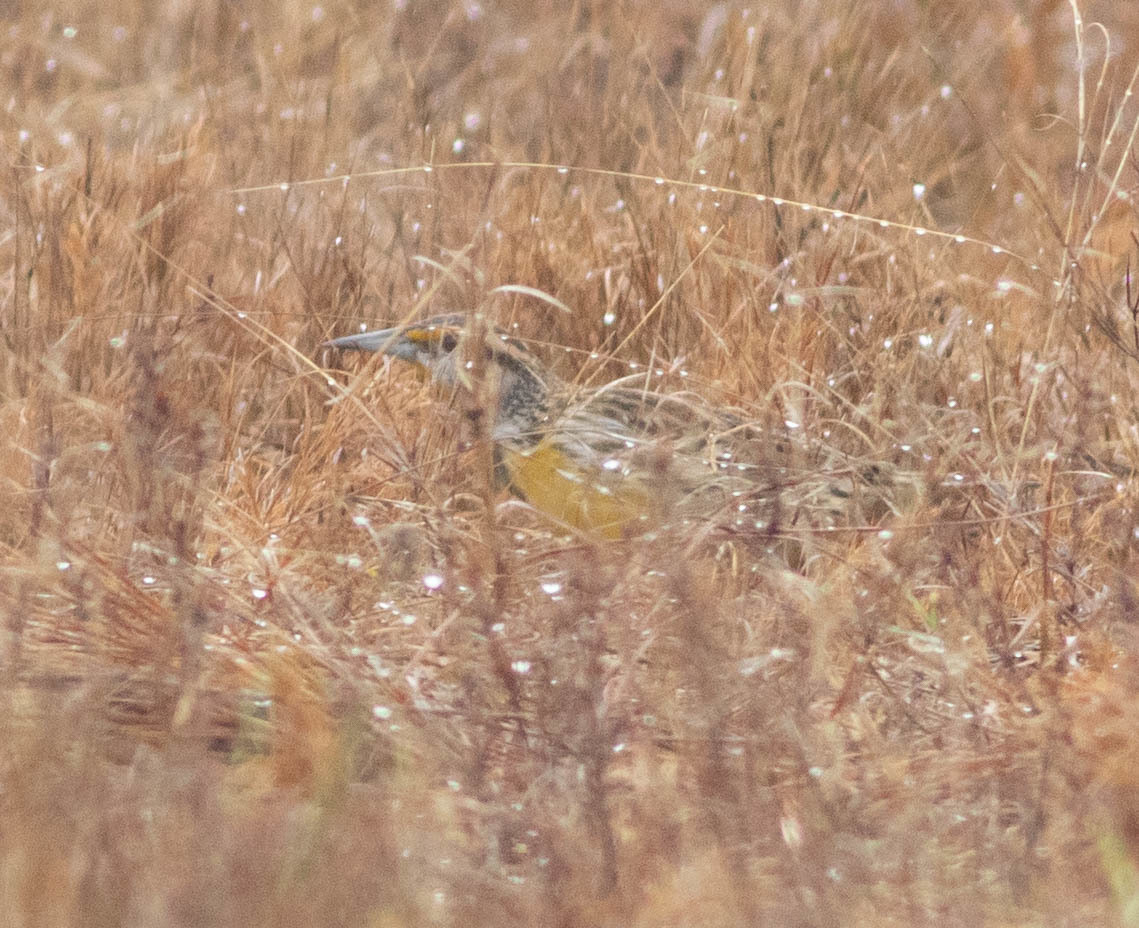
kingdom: Animalia
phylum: Chordata
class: Aves
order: Passeriformes
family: Icteridae
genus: Sturnella
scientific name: Sturnella magna
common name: Eastern meadowlark
